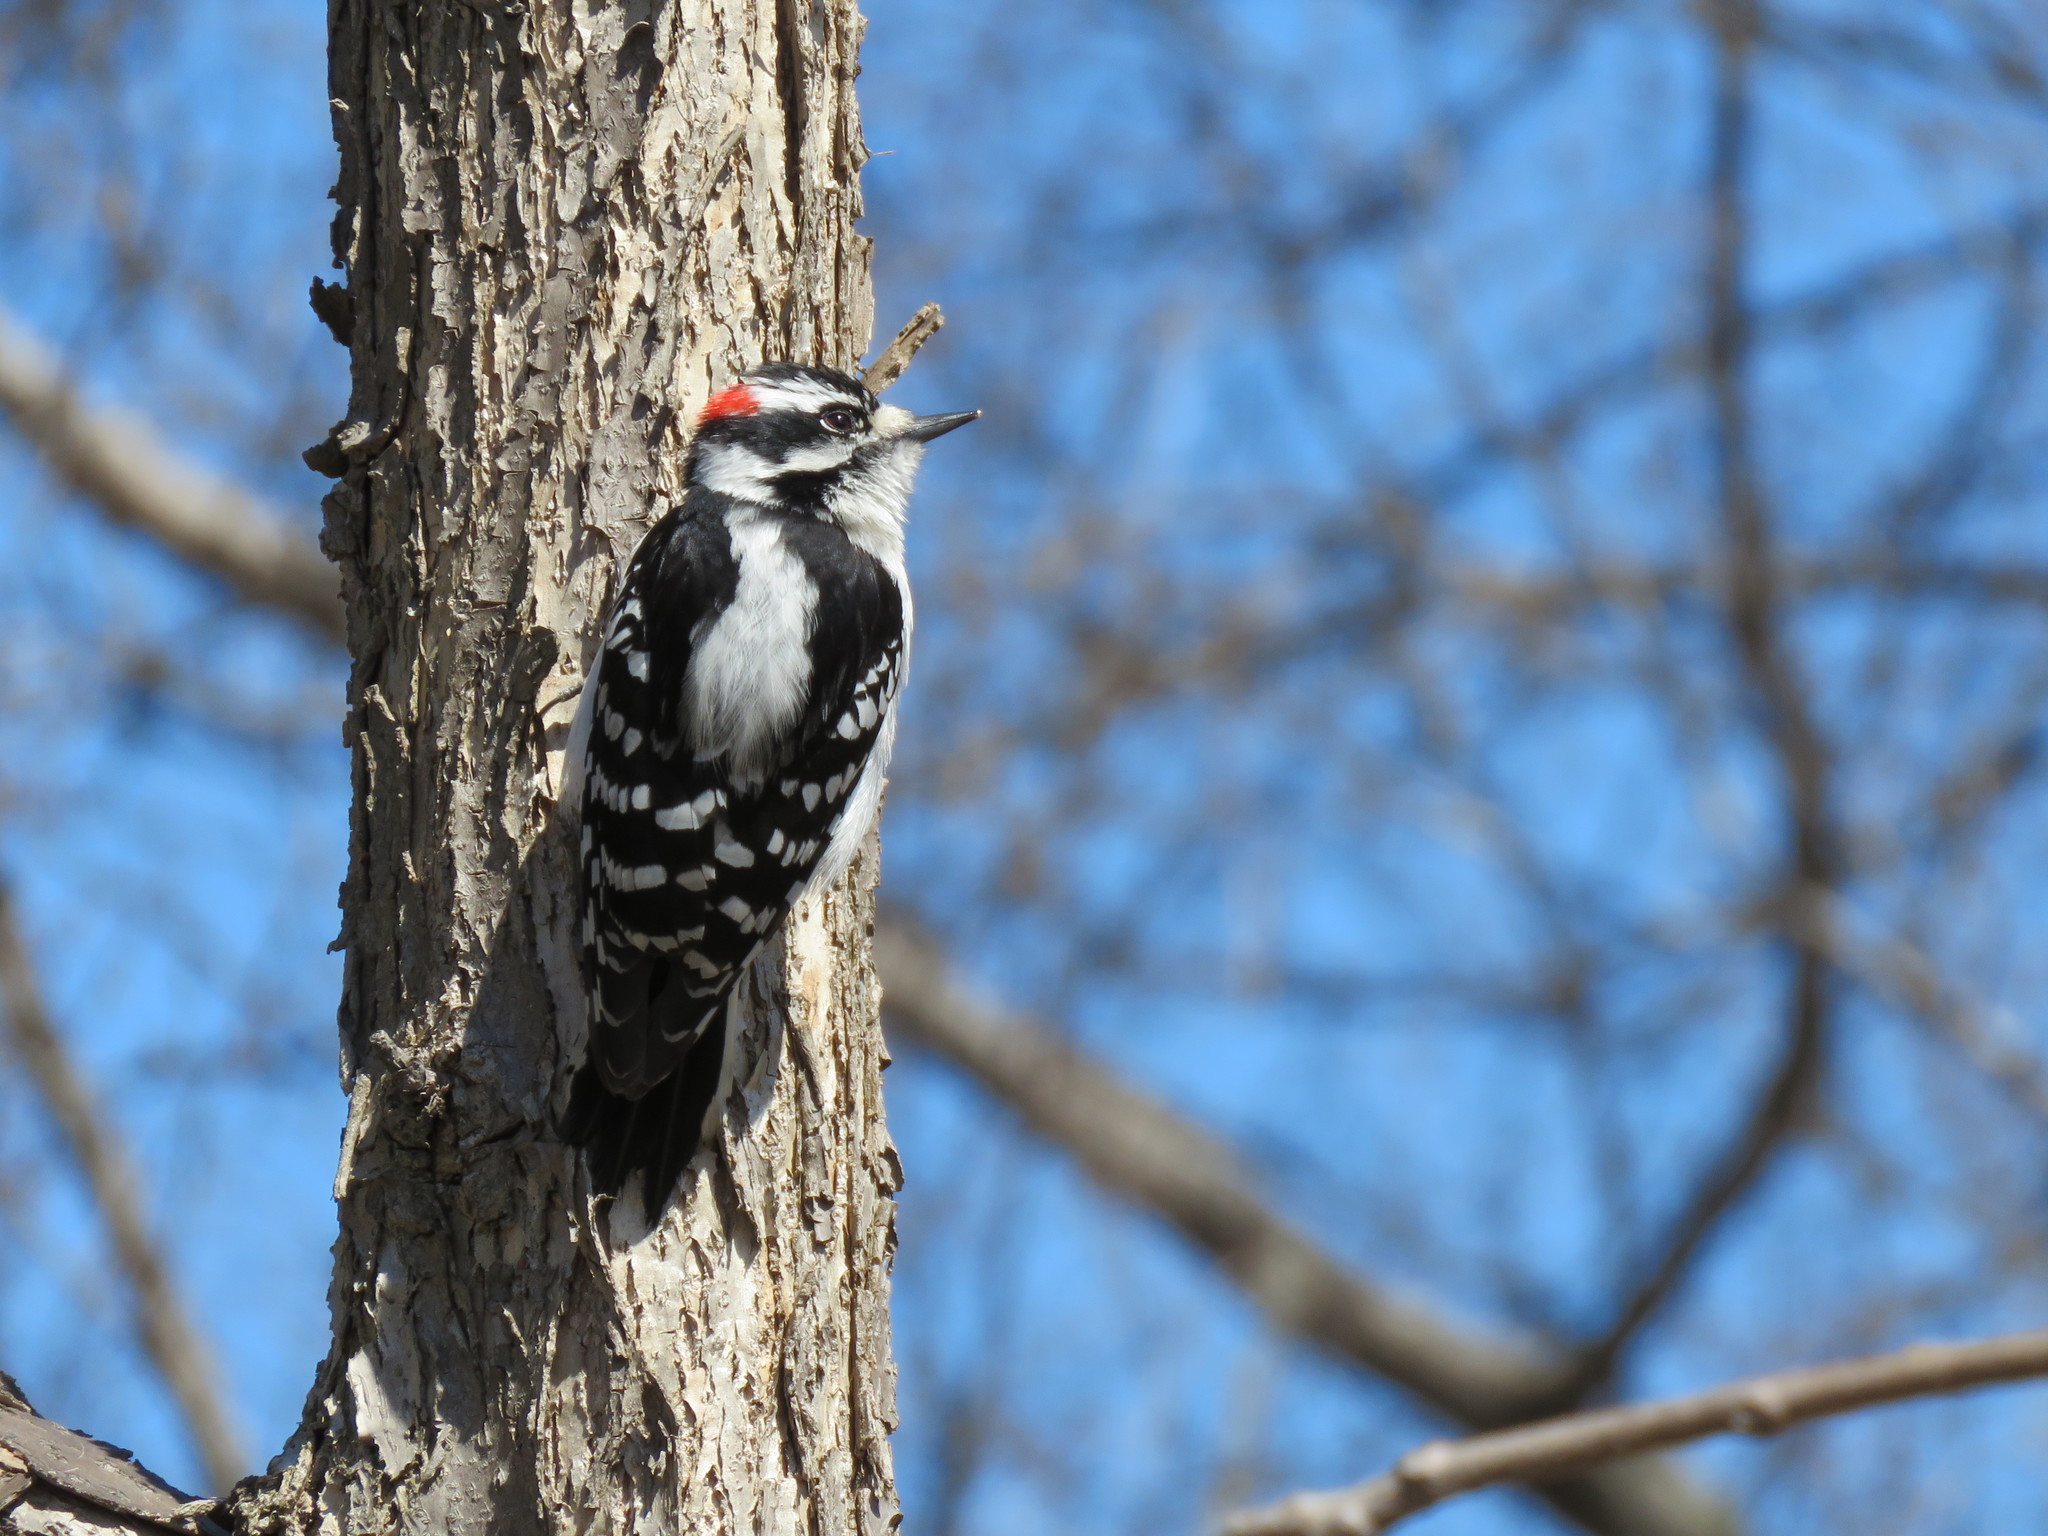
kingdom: Animalia
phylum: Chordata
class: Aves
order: Piciformes
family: Picidae
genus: Dryobates
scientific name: Dryobates pubescens
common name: Downy woodpecker
